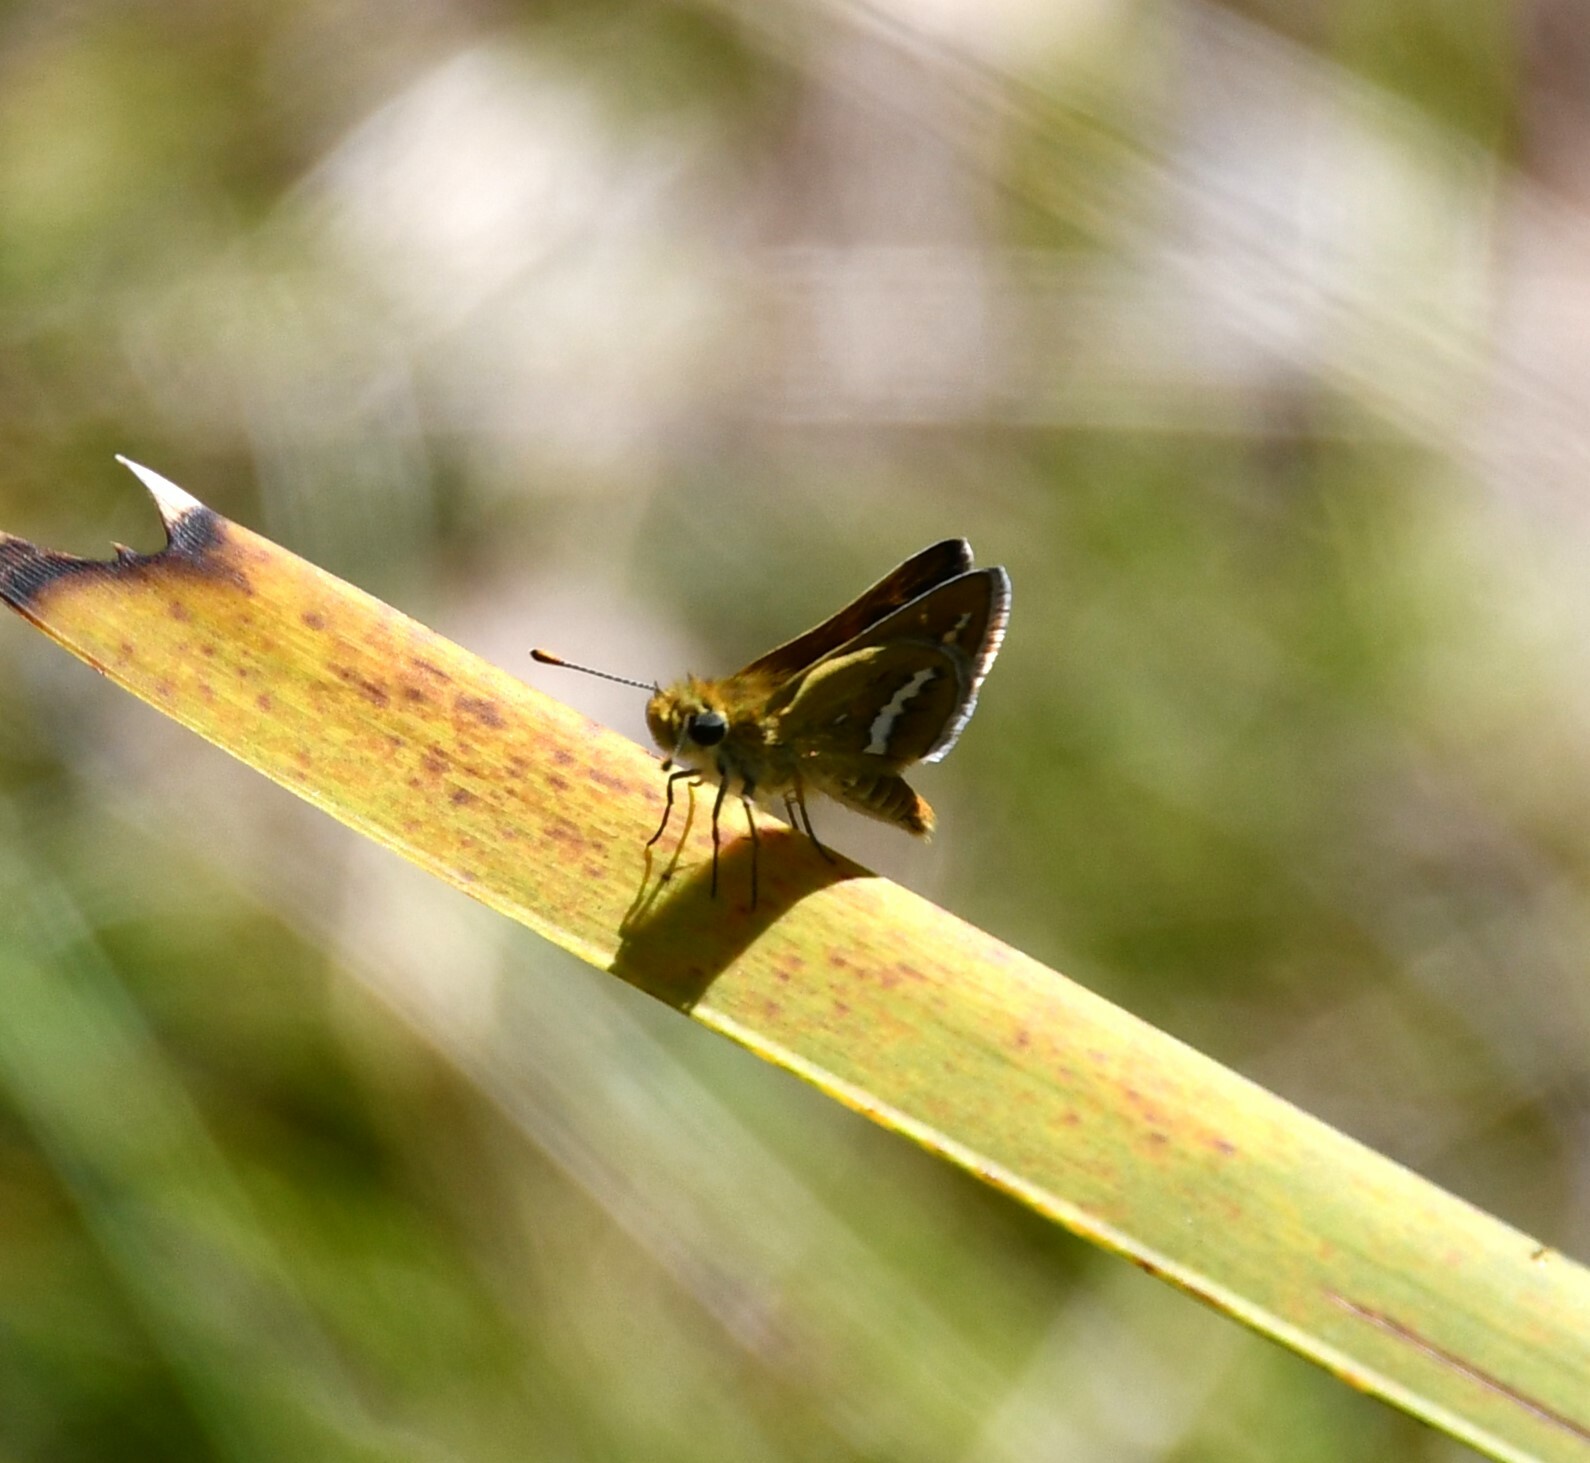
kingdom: Animalia
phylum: Arthropoda
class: Insecta
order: Lepidoptera
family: Hesperiidae
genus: Taractrocera
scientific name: Taractrocera papyria
